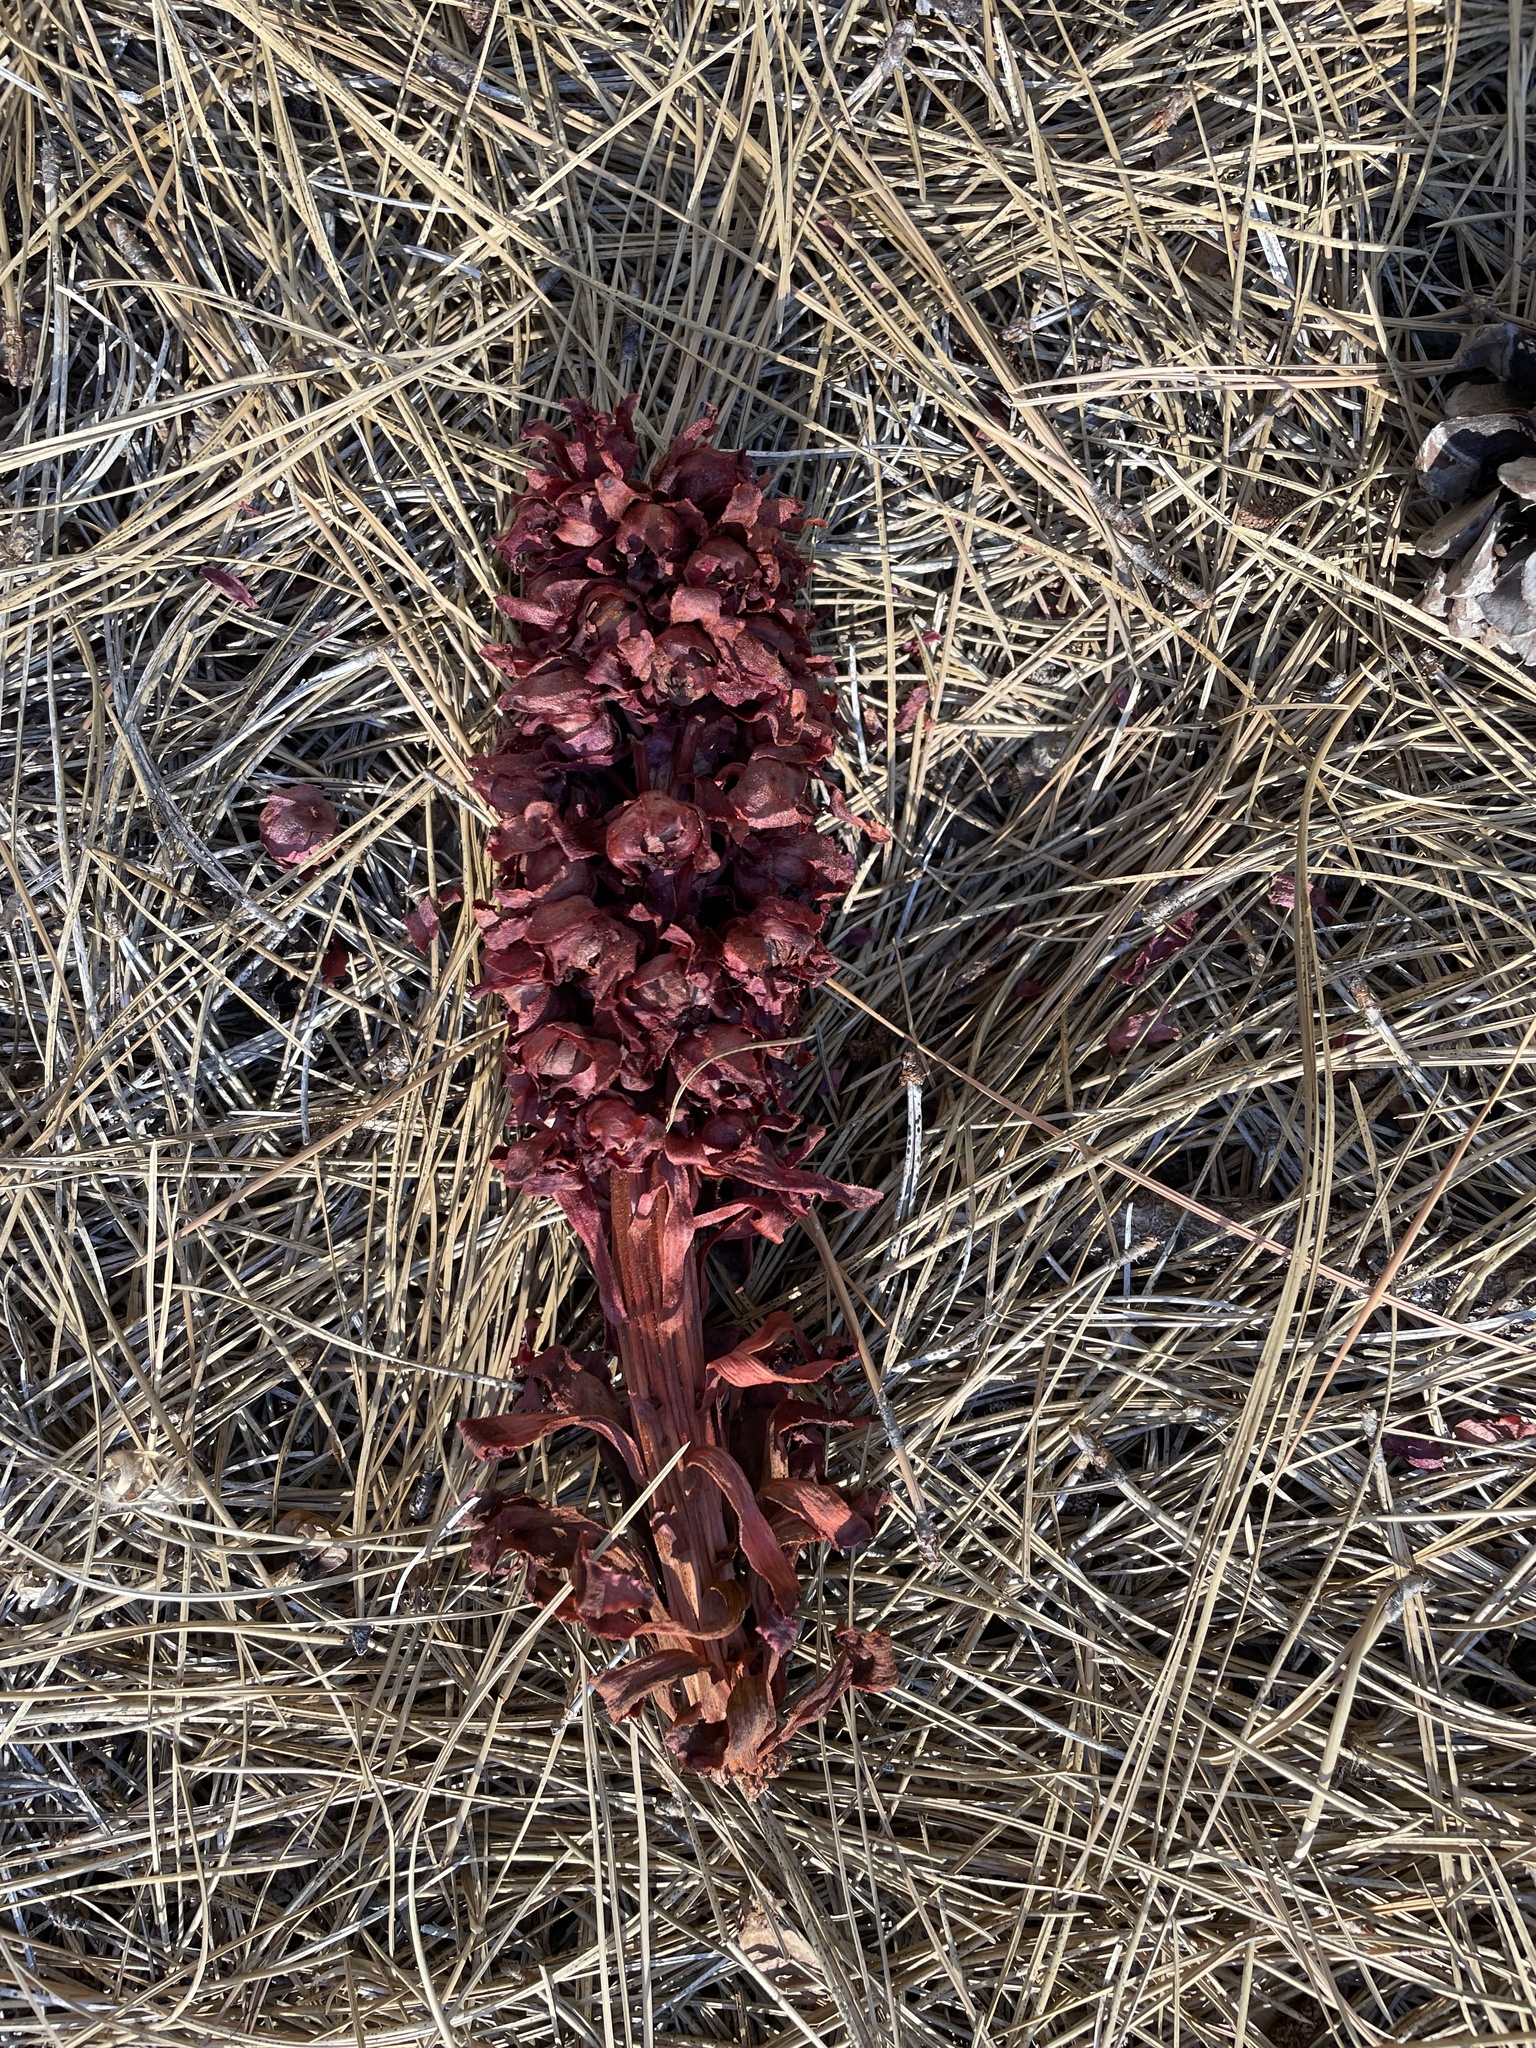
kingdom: Plantae
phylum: Tracheophyta
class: Magnoliopsida
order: Ericales
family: Ericaceae
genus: Sarcodes
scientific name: Sarcodes sanguinea
